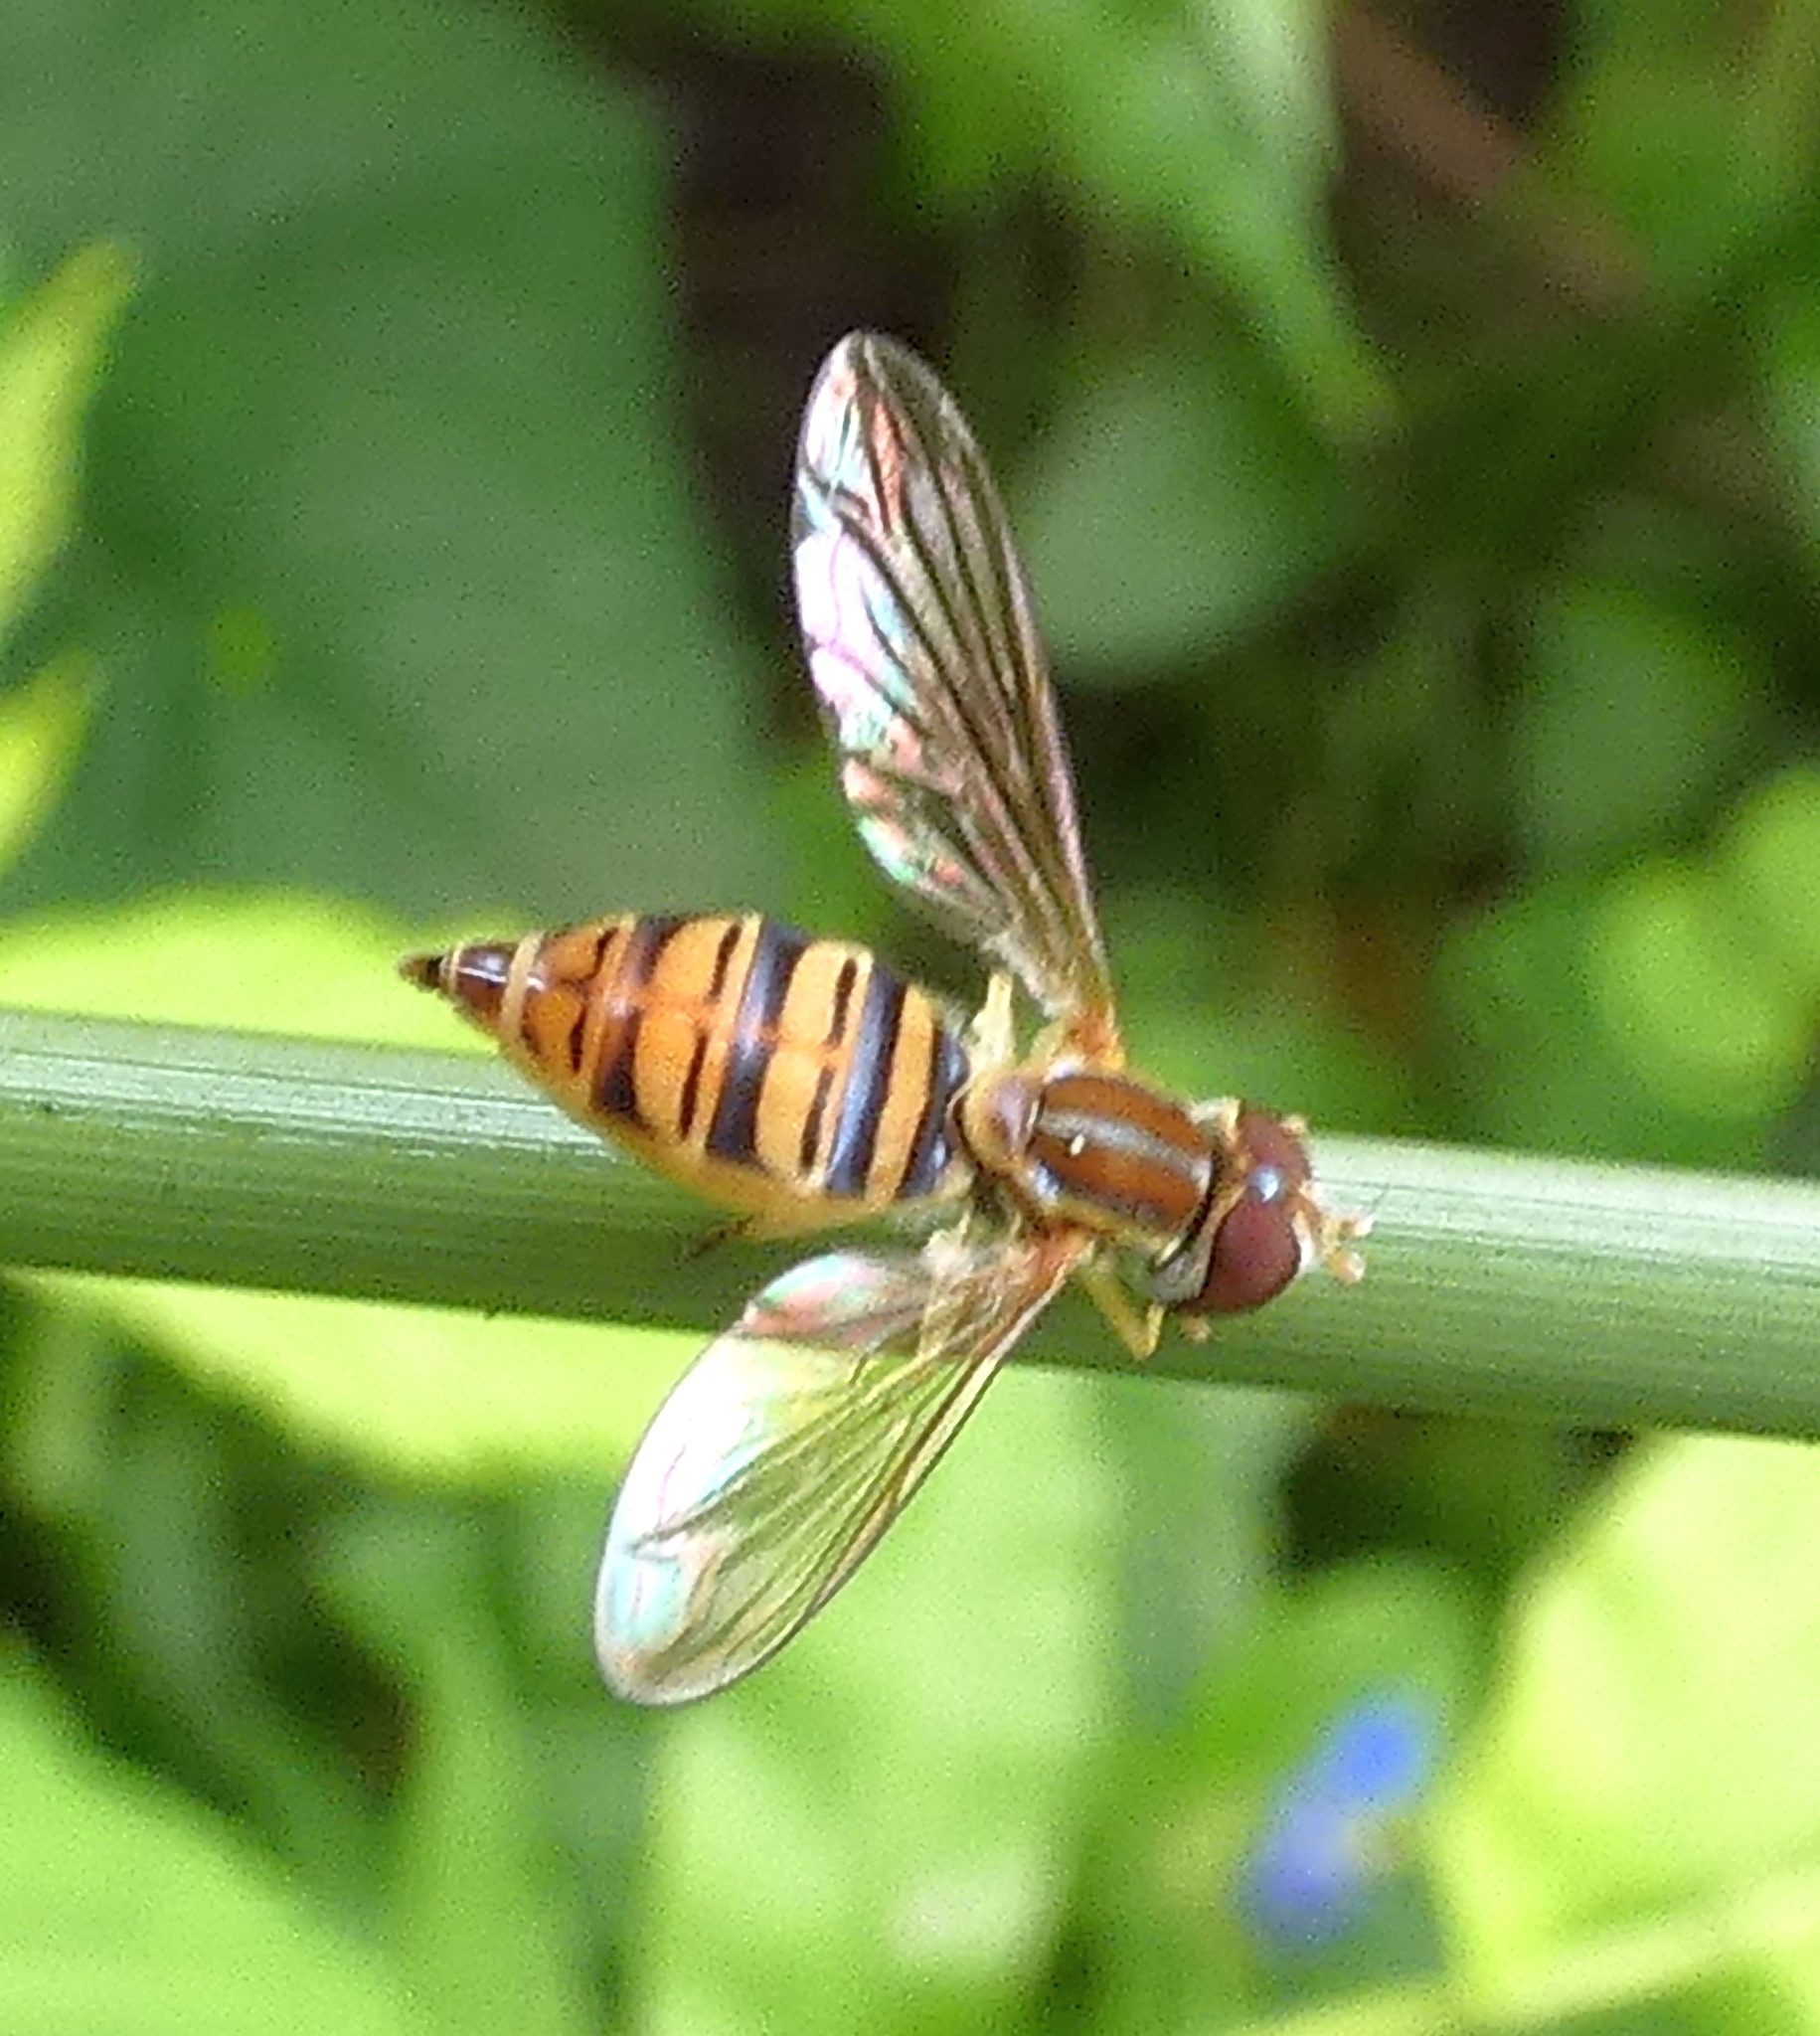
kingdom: Animalia
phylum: Arthropoda
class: Insecta
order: Diptera
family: Syrphidae
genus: Toxomerus
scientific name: Toxomerus politus
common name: Maize calligrapher
